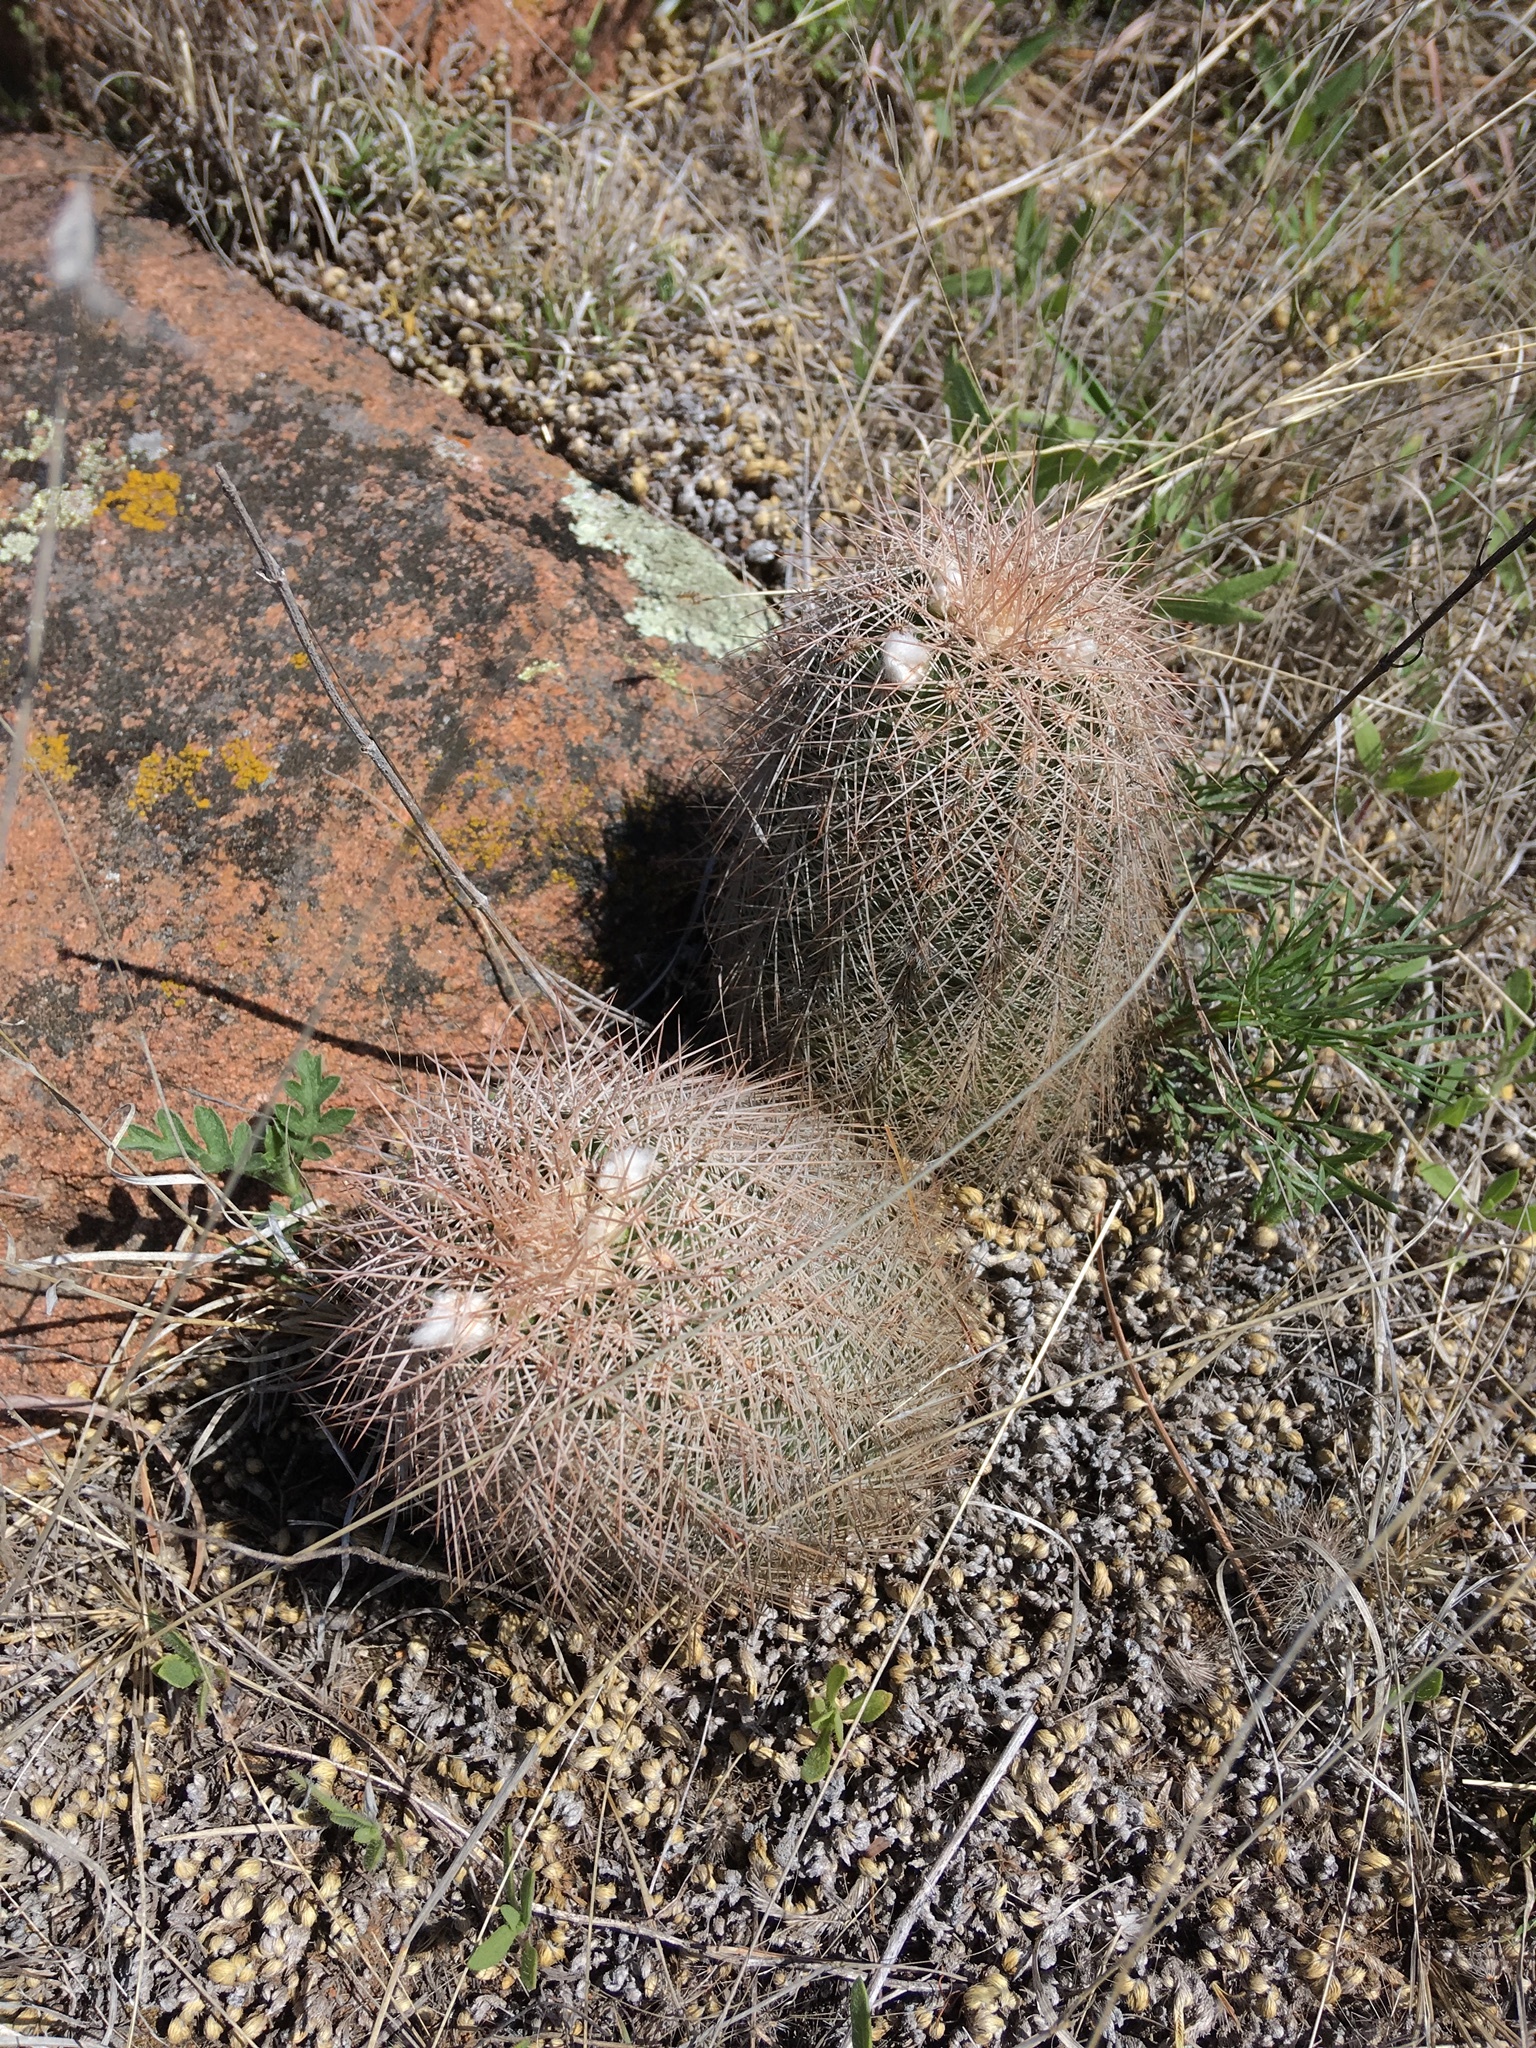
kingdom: Plantae
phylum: Tracheophyta
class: Magnoliopsida
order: Caryophyllales
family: Cactaceae
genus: Echinocereus
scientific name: Echinocereus reichenbachii
